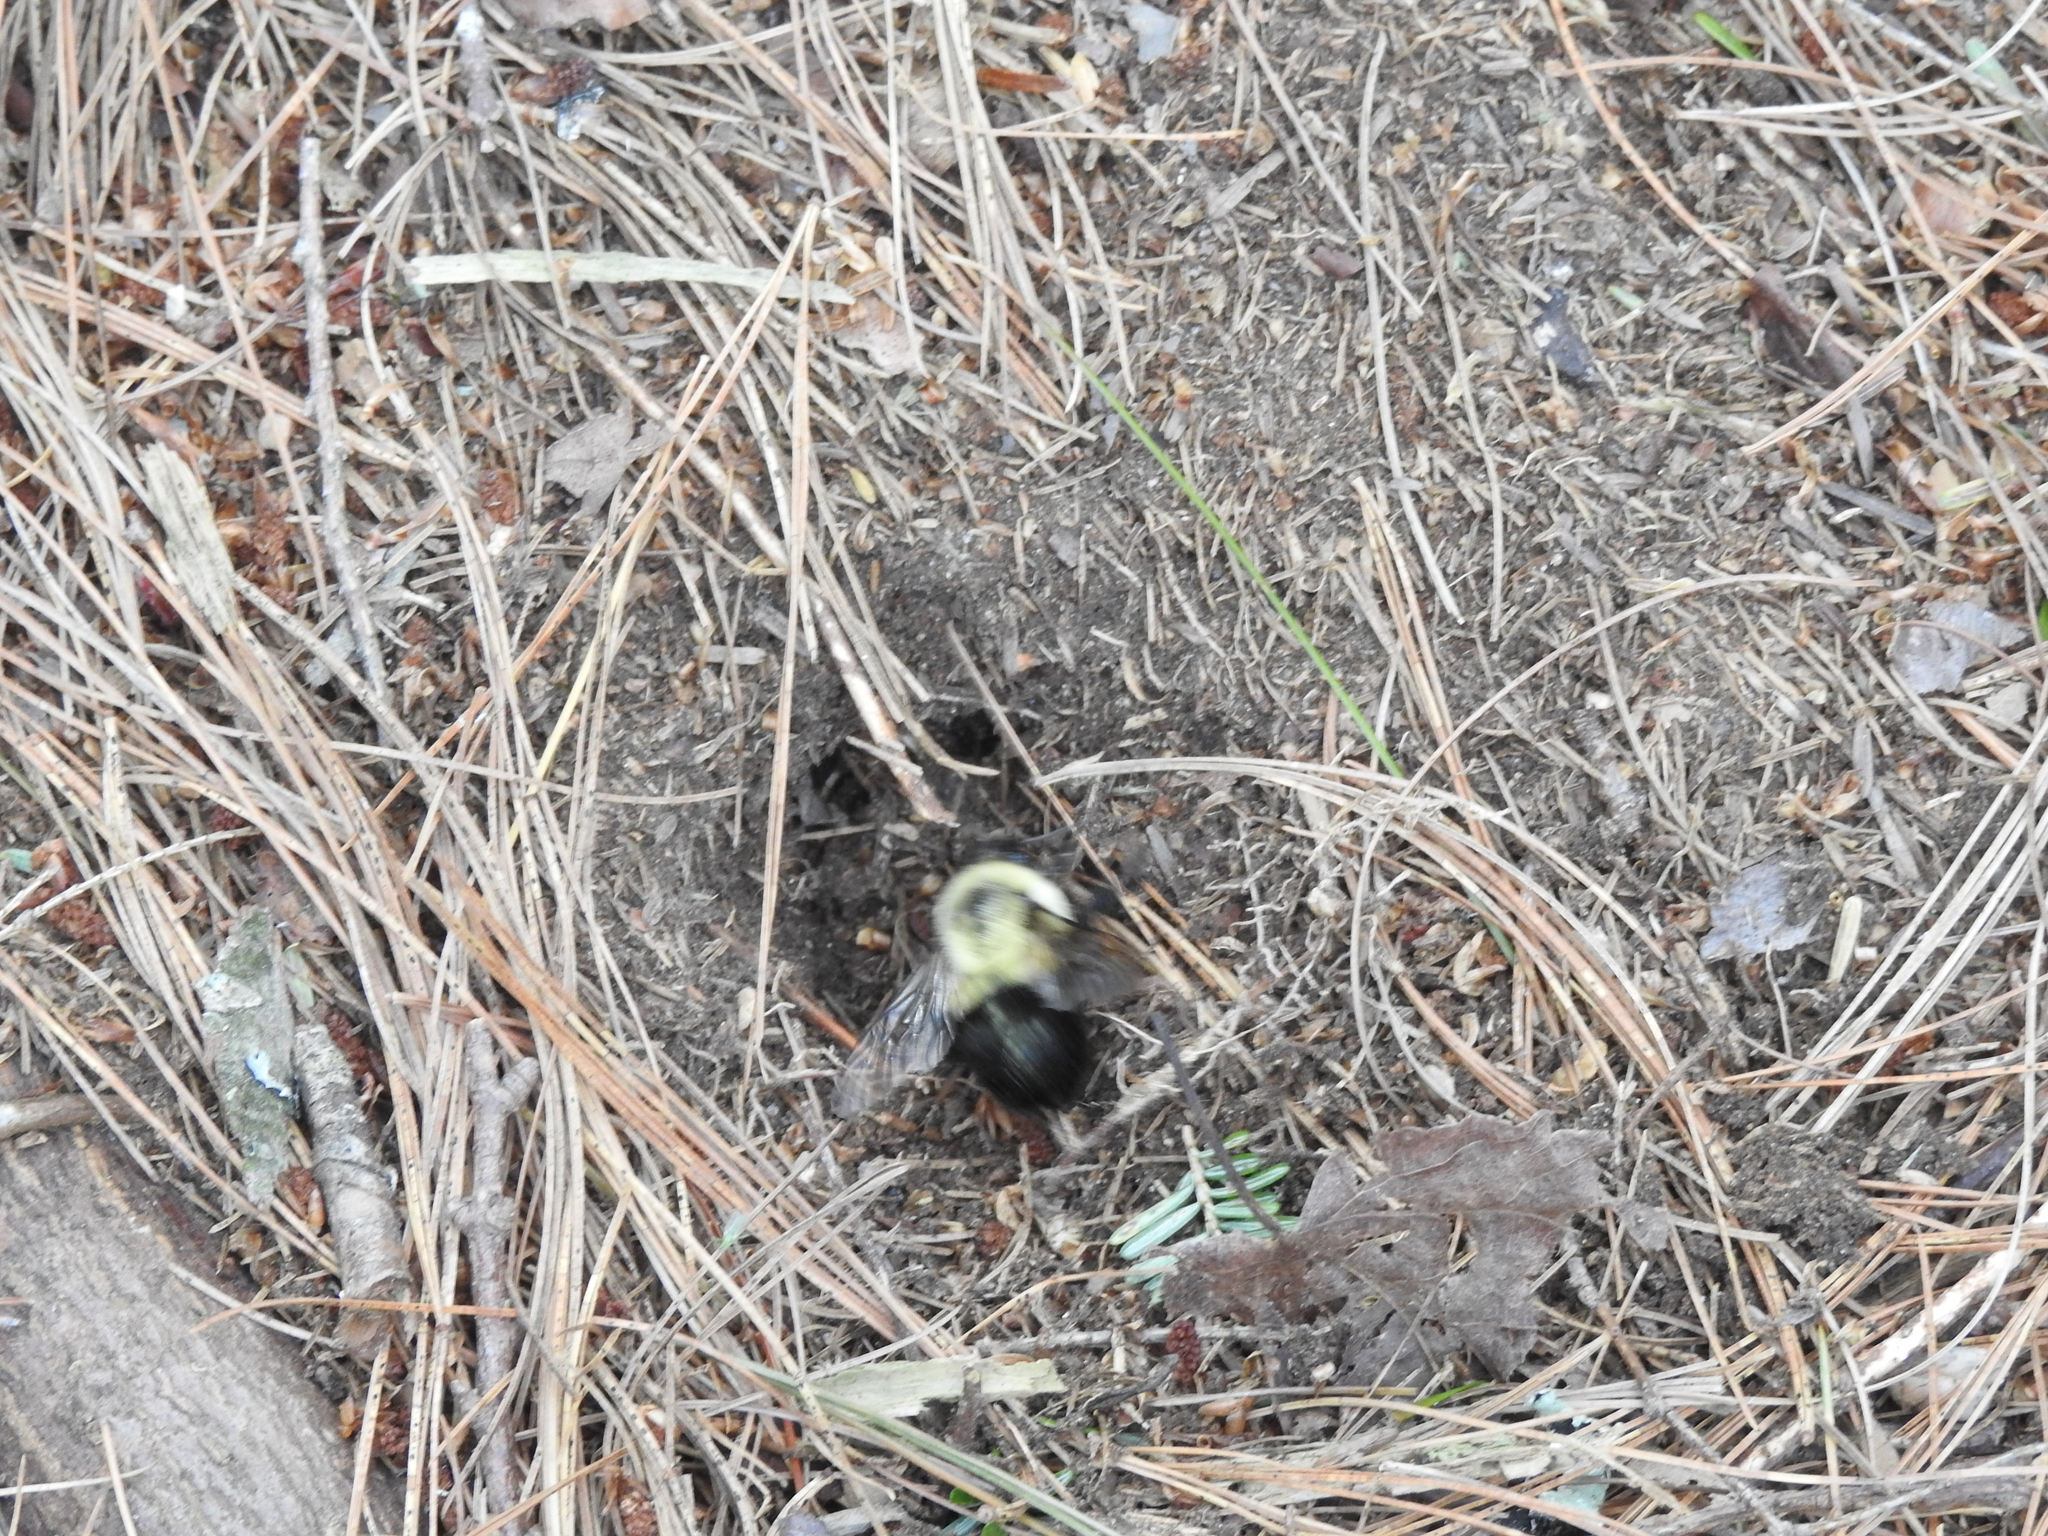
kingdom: Animalia
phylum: Arthropoda
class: Insecta
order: Hymenoptera
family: Apidae
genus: Bombus
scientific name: Bombus impatiens
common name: Common eastern bumble bee
